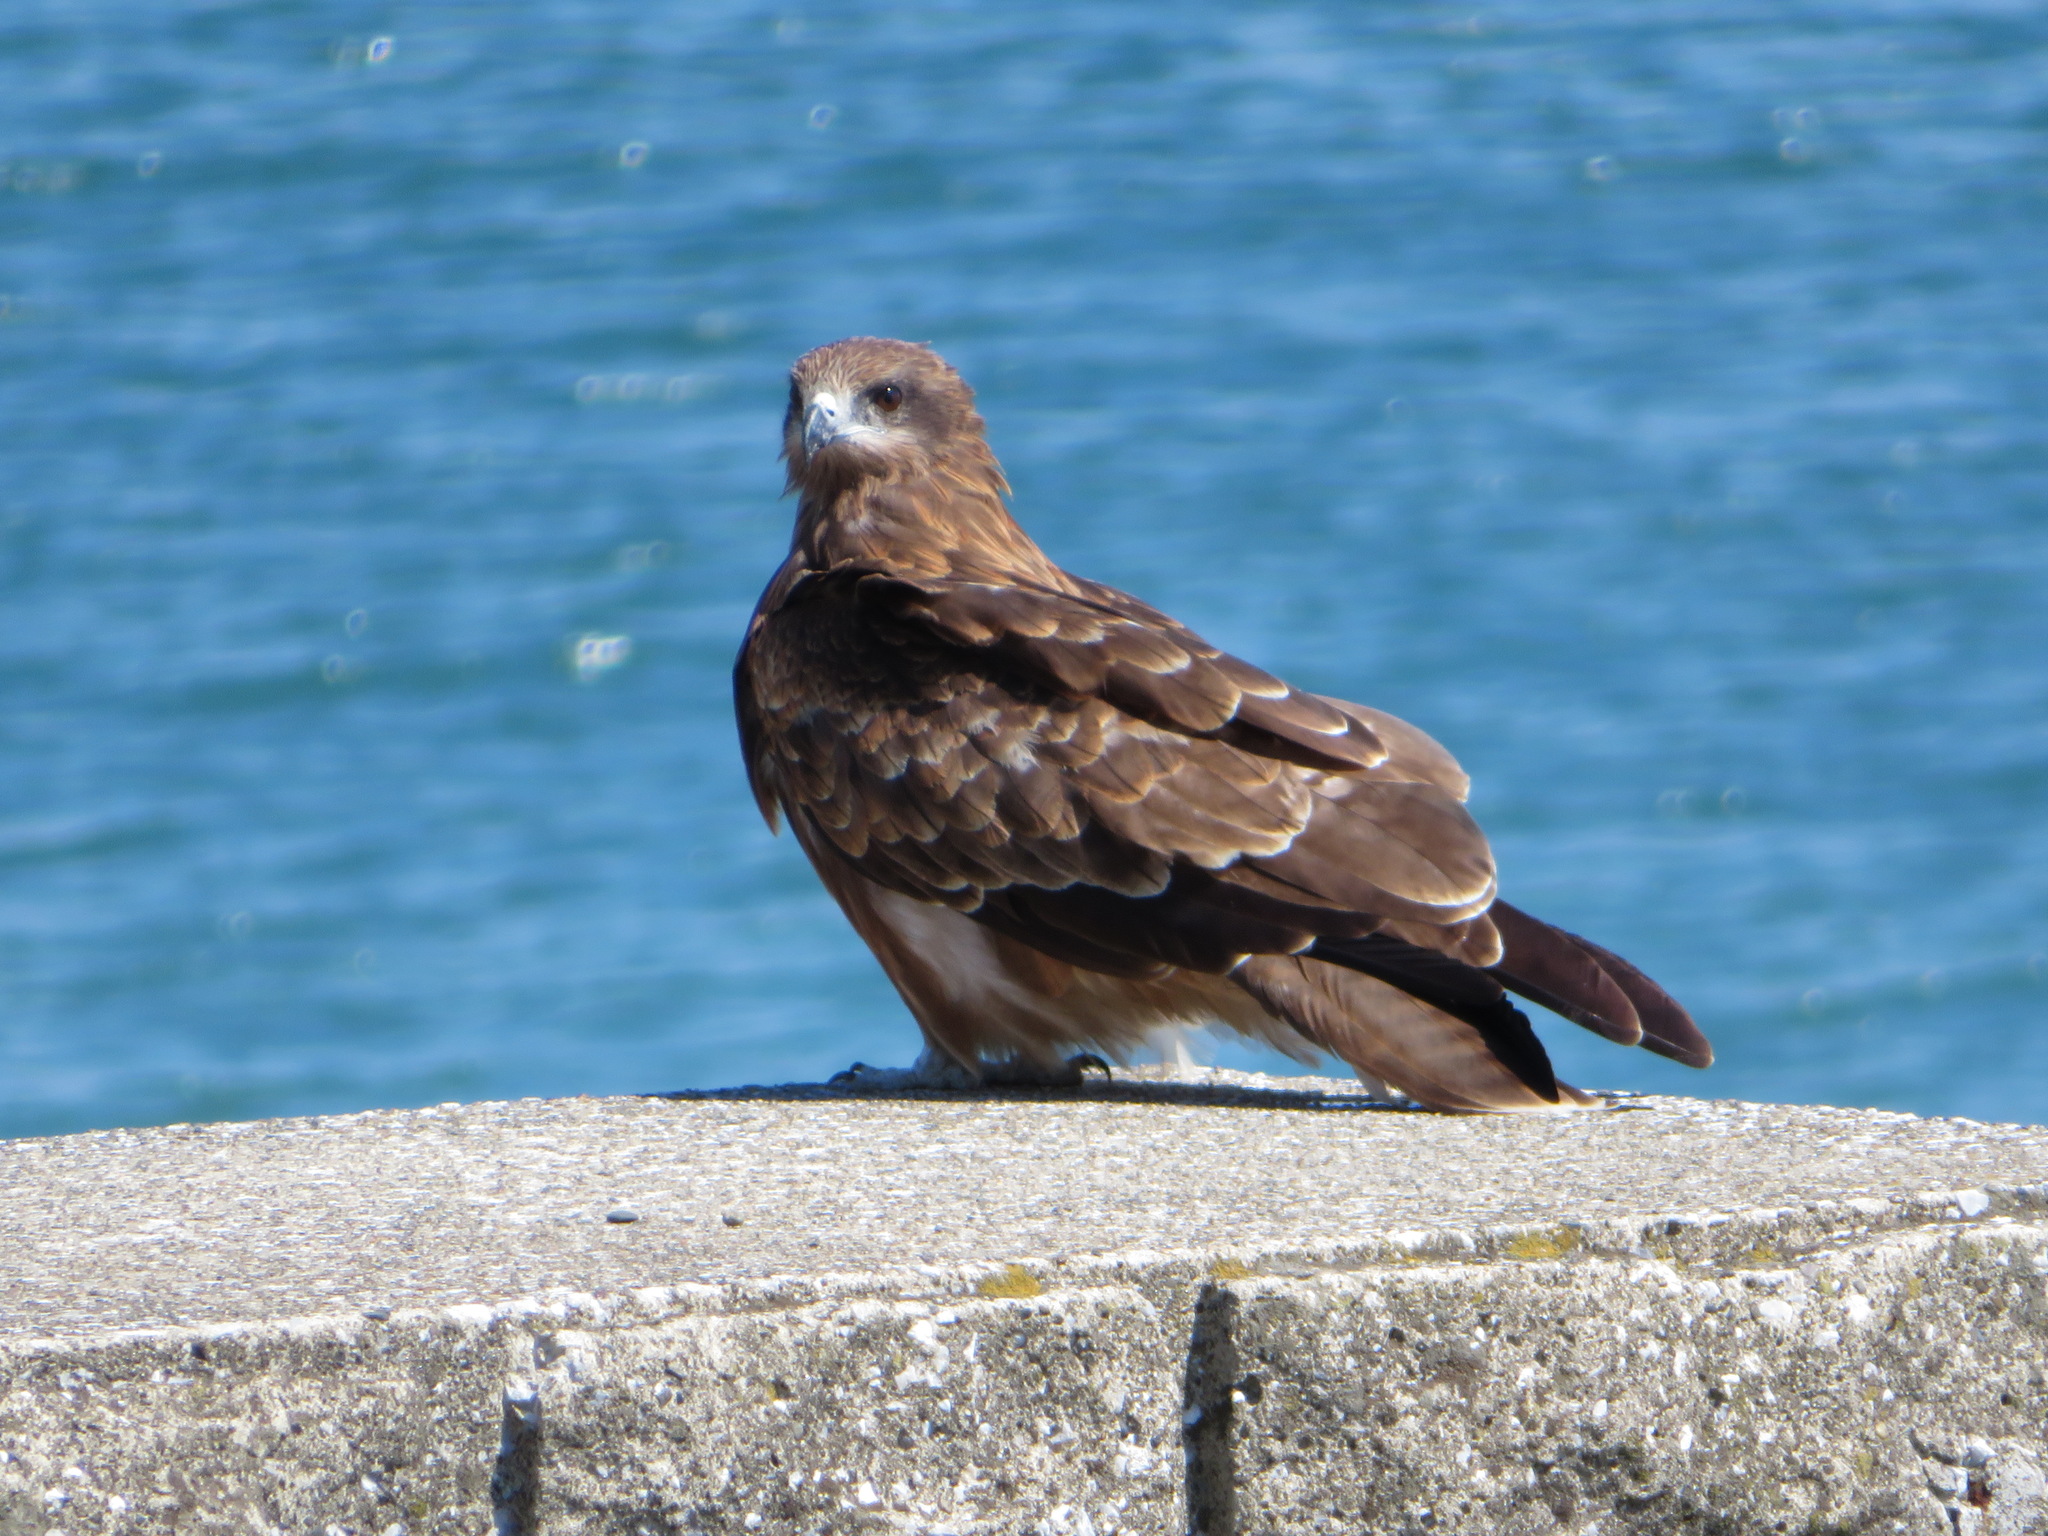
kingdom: Animalia
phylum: Chordata
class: Aves
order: Accipitriformes
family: Accipitridae
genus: Milvus
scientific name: Milvus migrans
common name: Black kite
